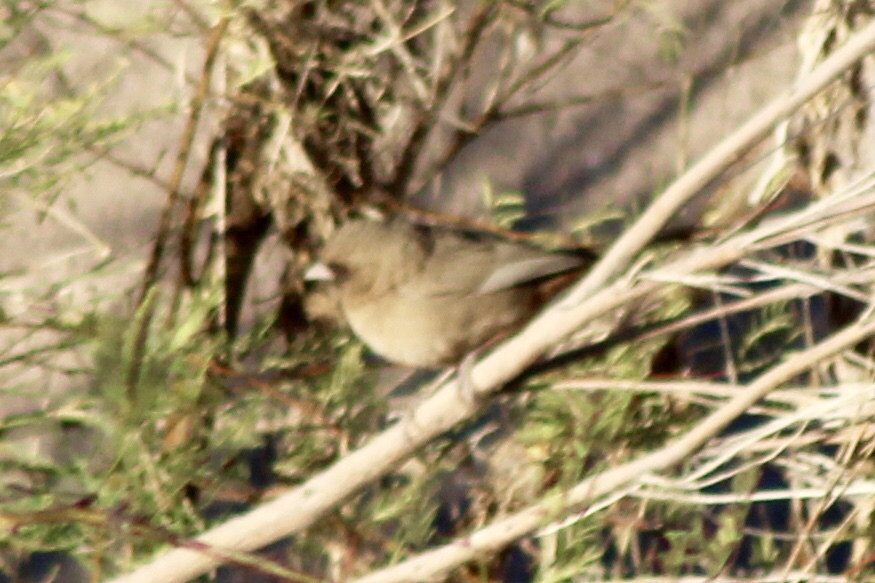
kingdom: Animalia
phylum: Chordata
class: Aves
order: Passeriformes
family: Passerellidae
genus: Melozone
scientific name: Melozone aberti
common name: Abert's towhee
